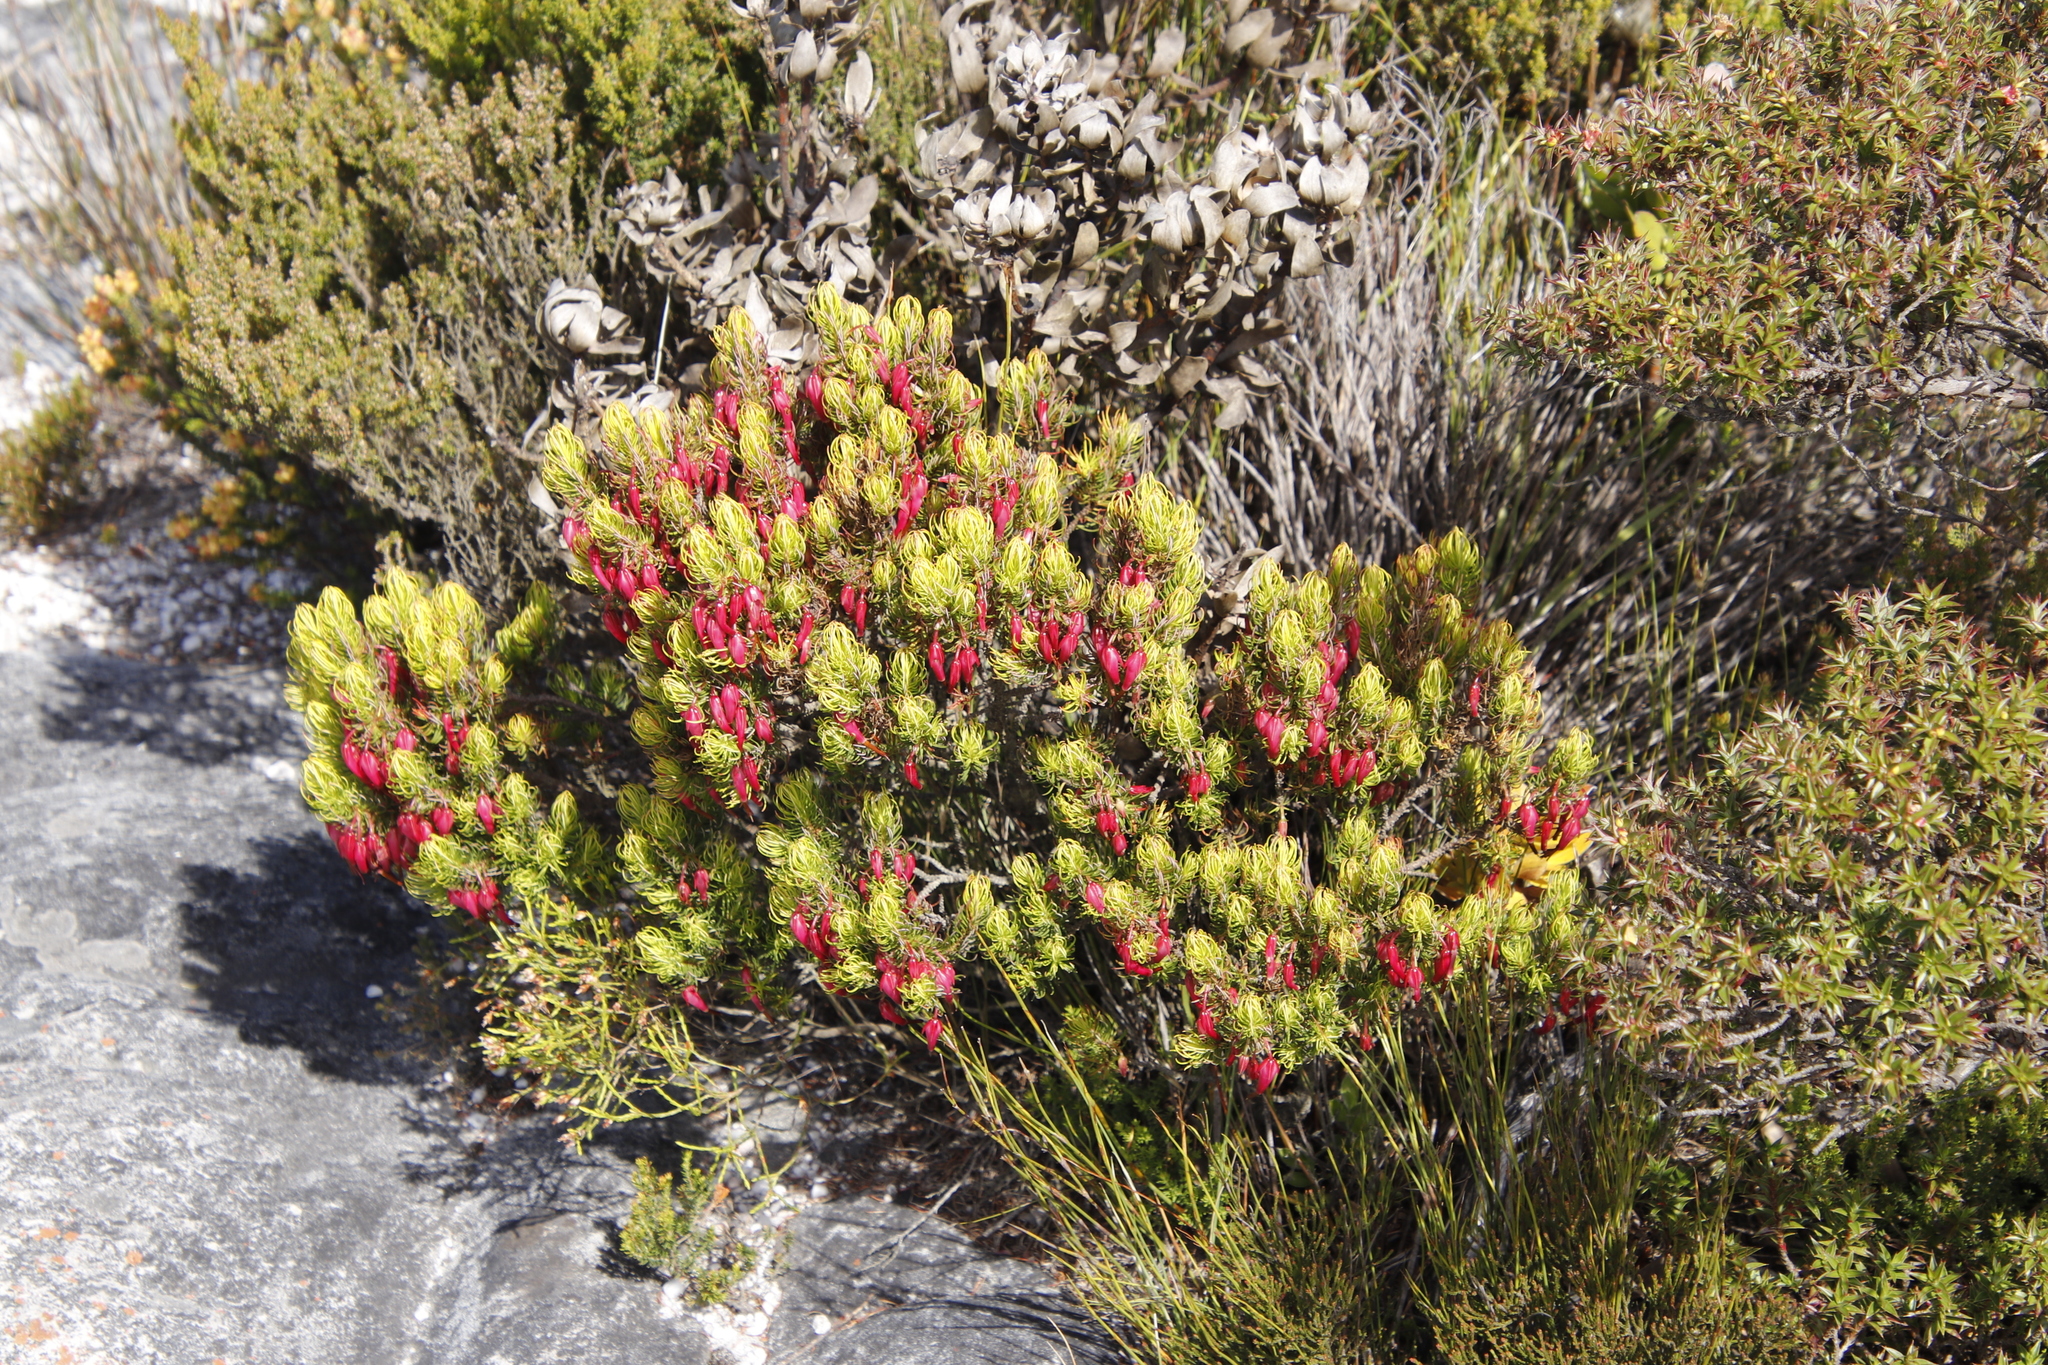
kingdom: Plantae
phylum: Tracheophyta
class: Magnoliopsida
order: Ericales
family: Ericaceae
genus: Erica
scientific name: Erica plukenetii
